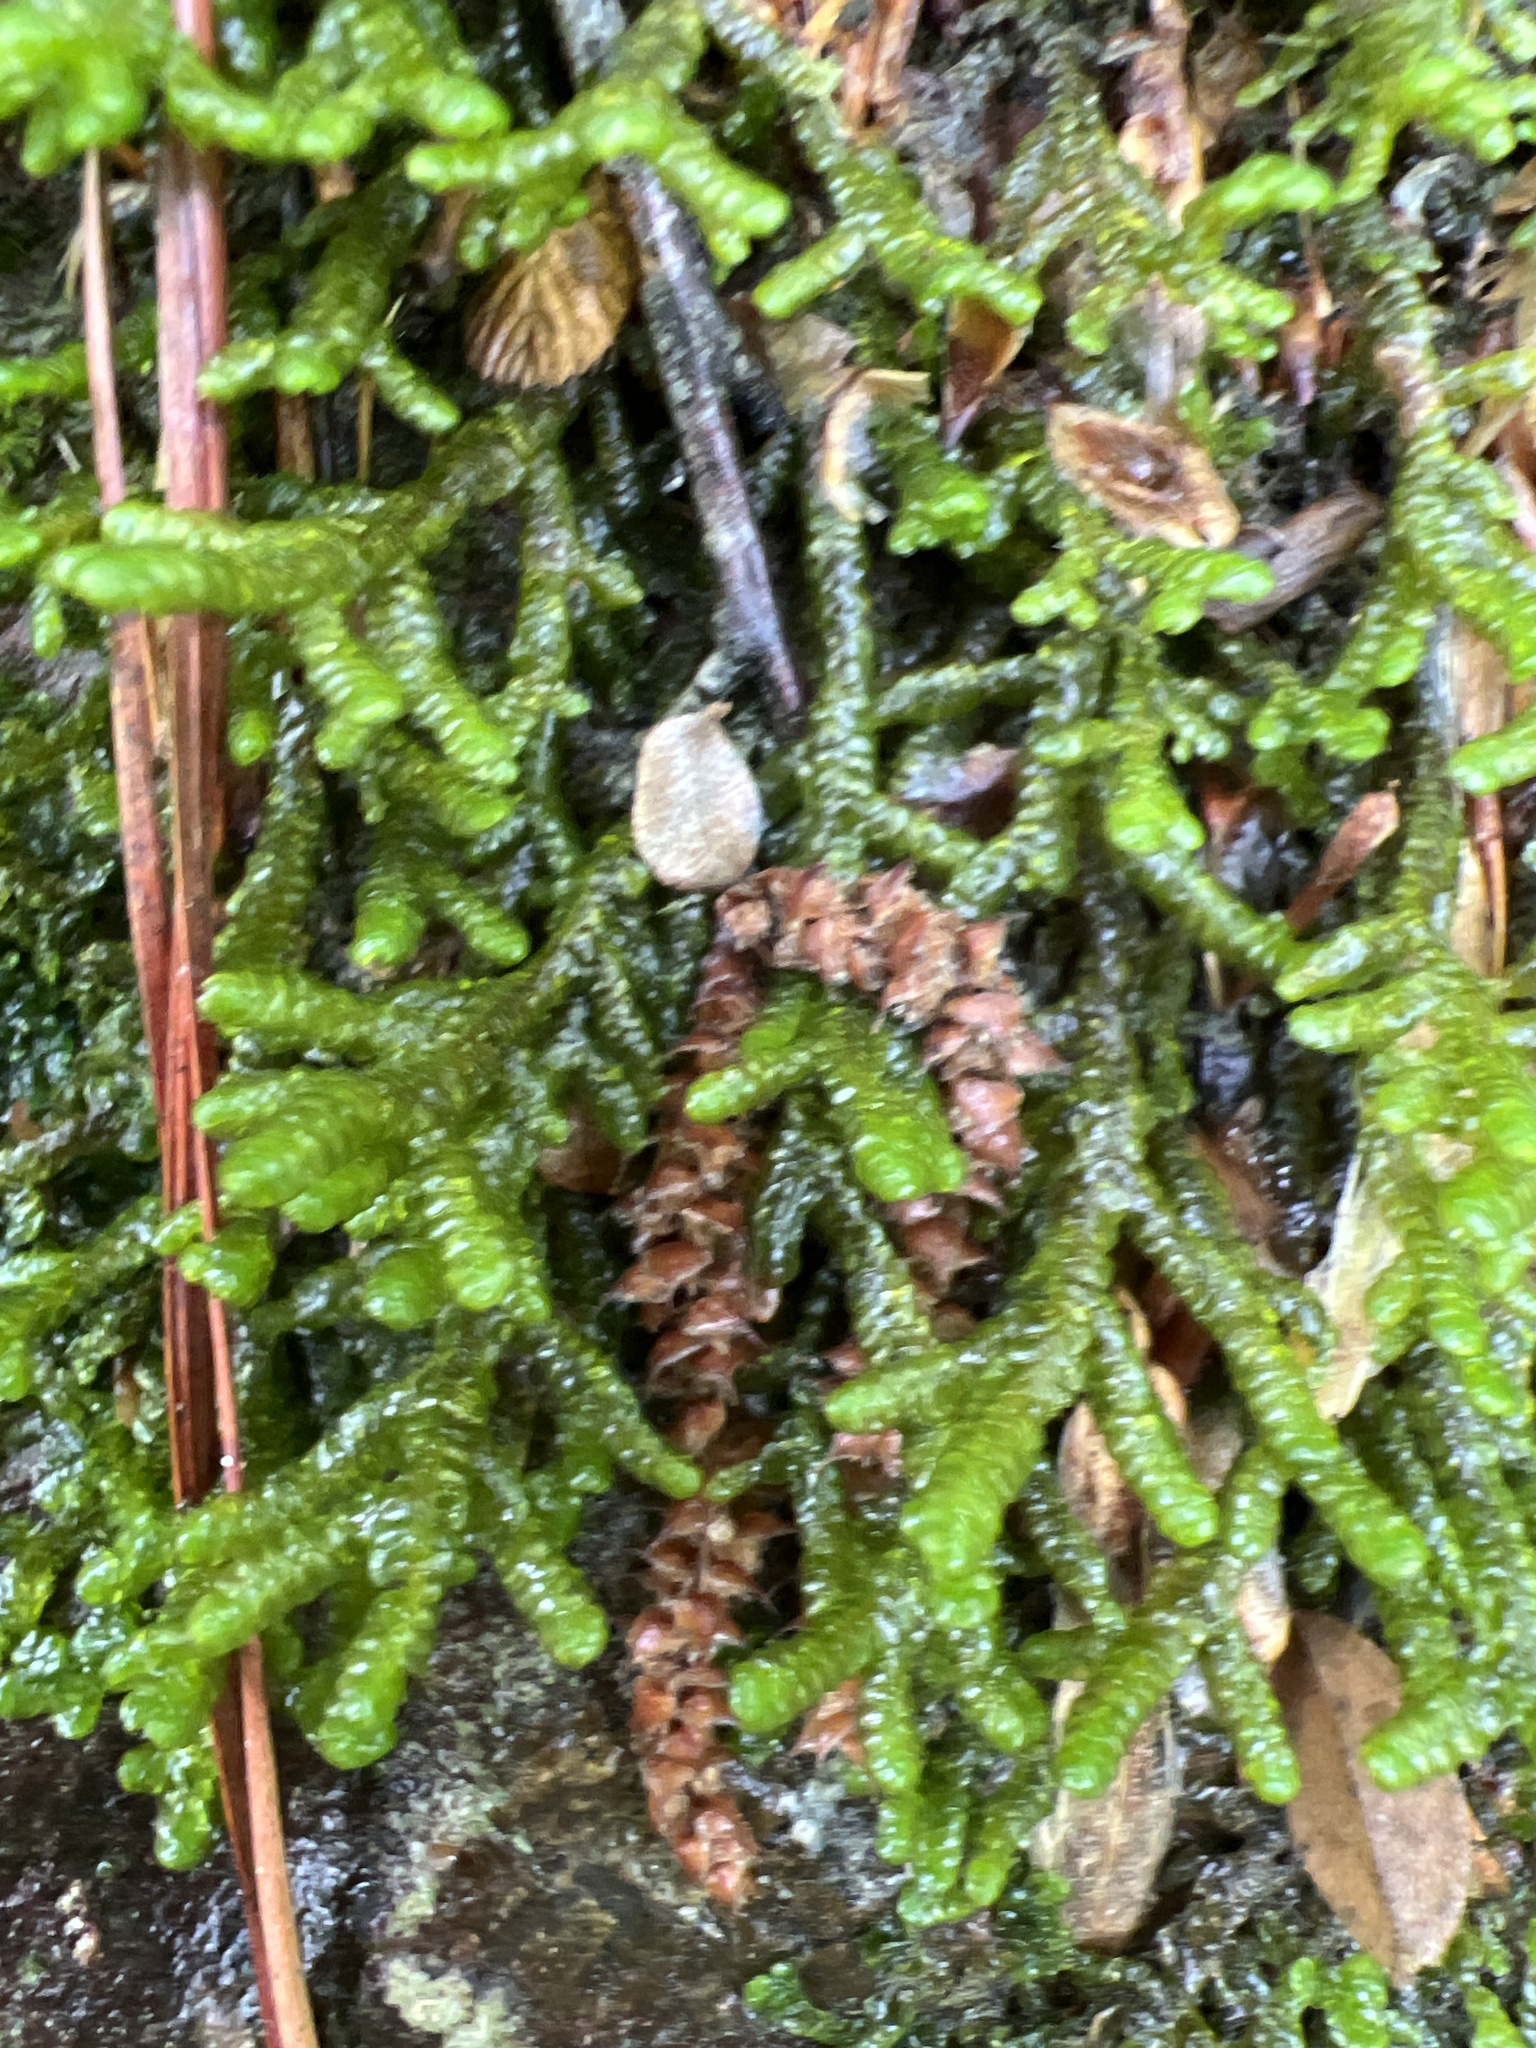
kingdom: Plantae
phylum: Marchantiophyta
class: Jungermanniopsida
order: Porellales
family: Porellaceae
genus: Porella
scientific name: Porella platyphylla
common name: Wall scalewort
